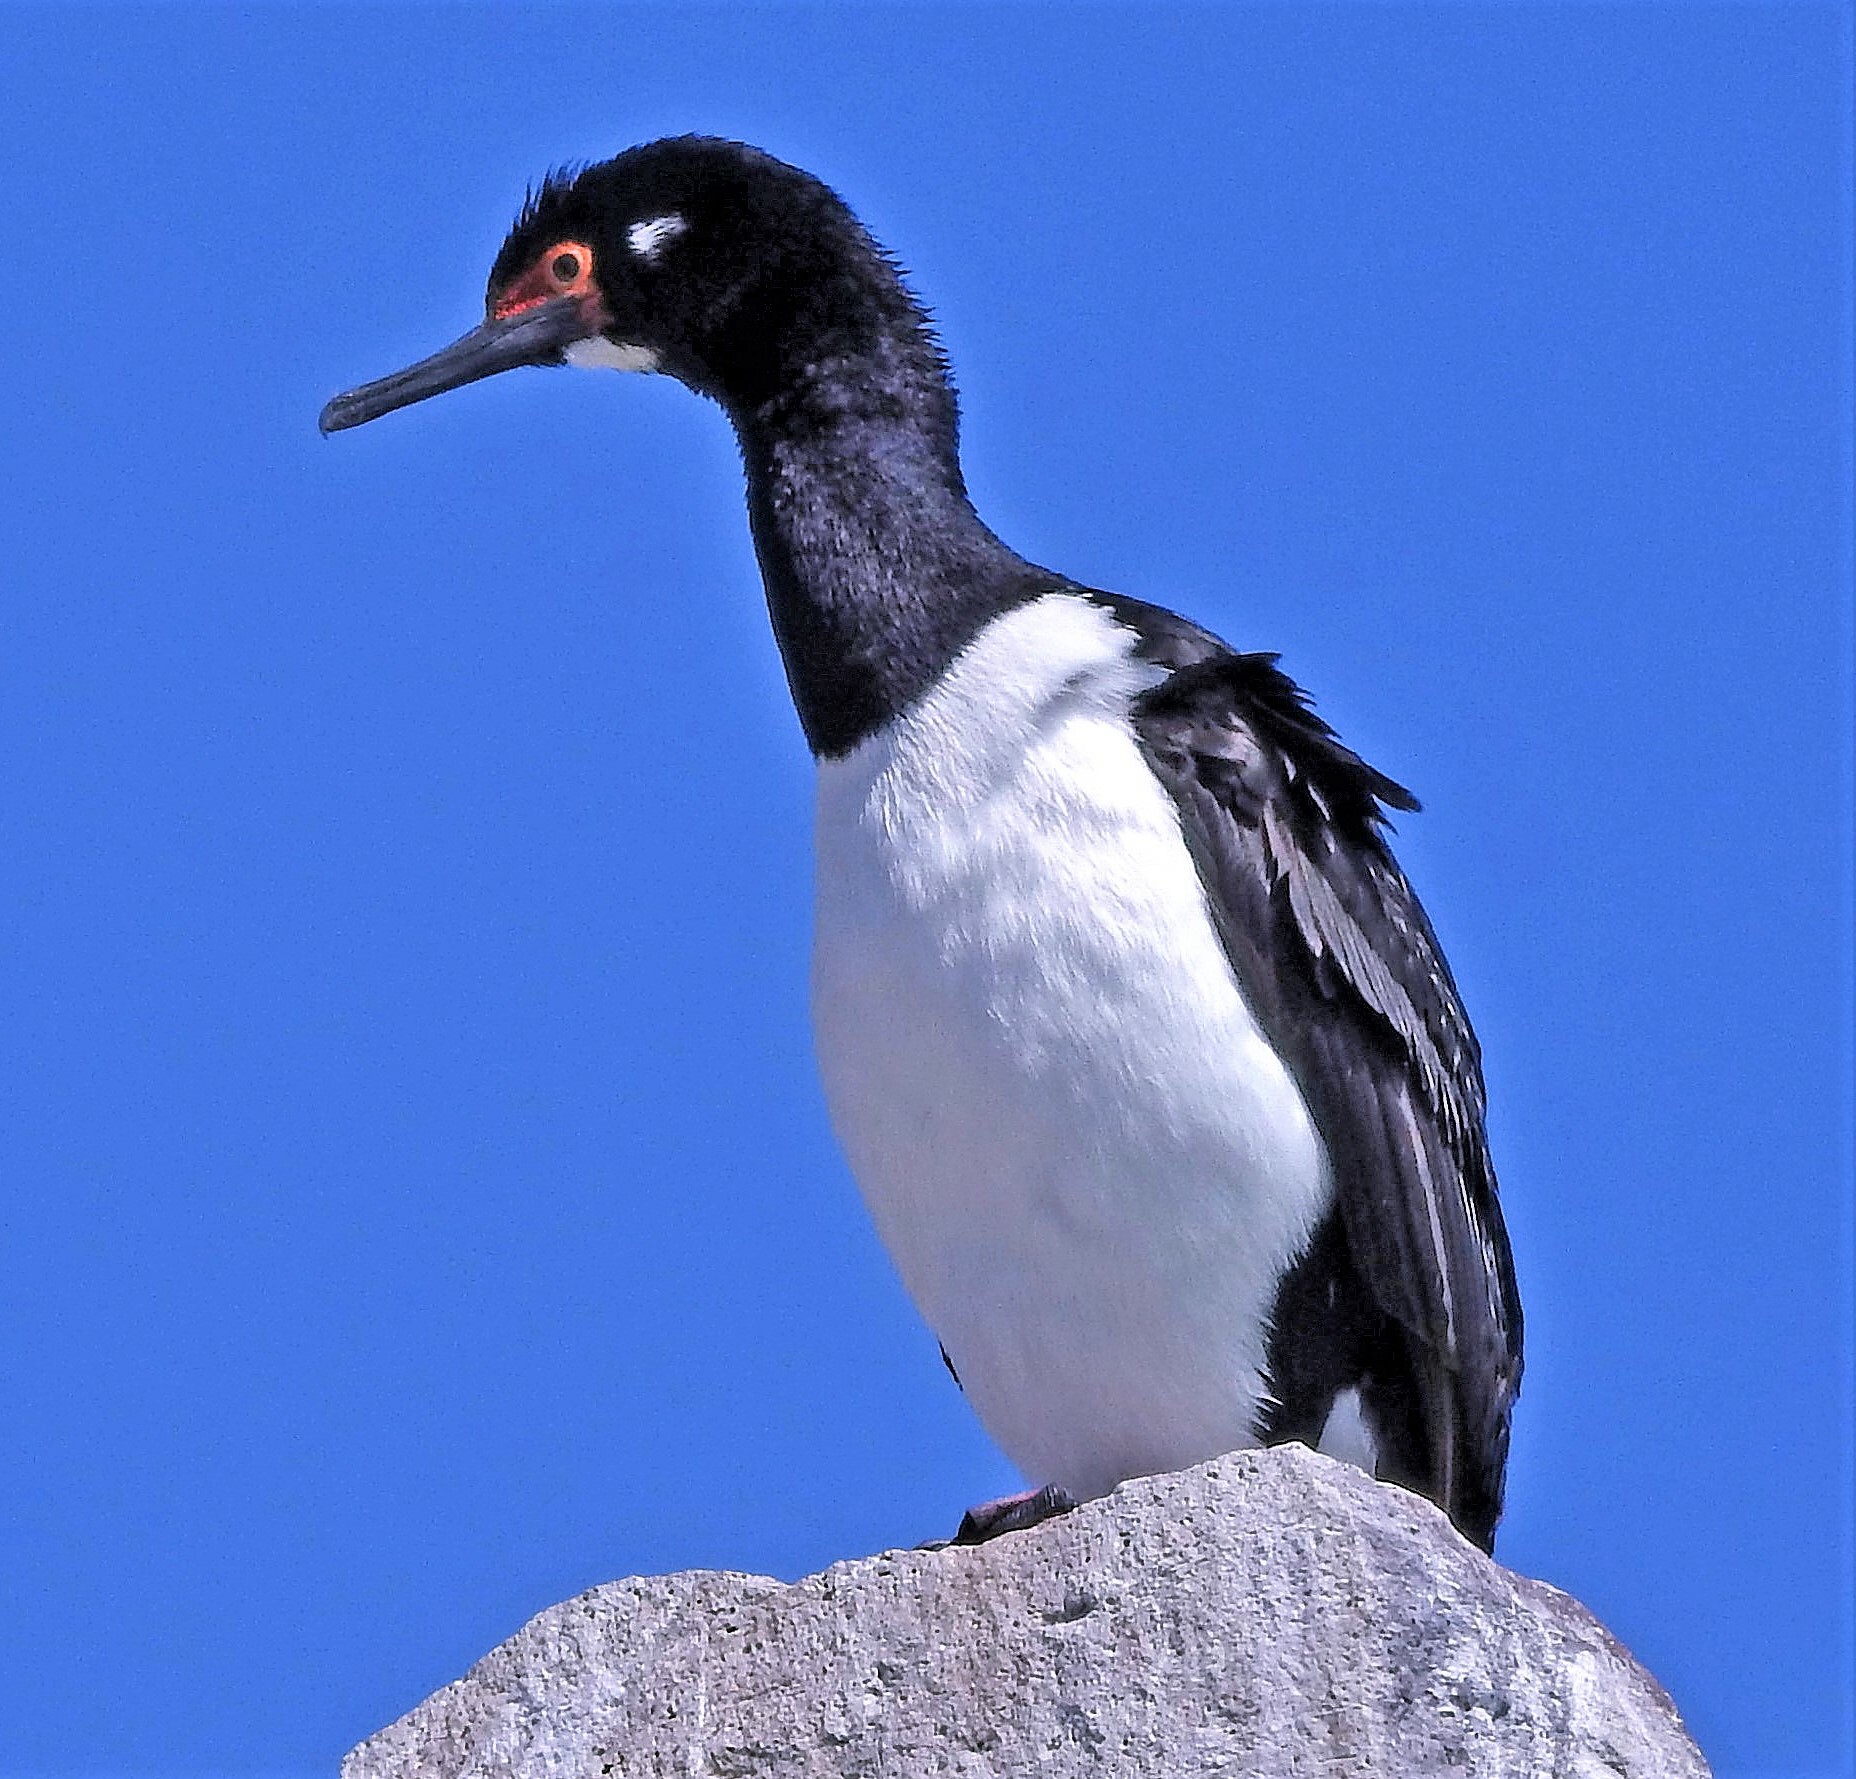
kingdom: Animalia
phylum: Chordata
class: Aves
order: Suliformes
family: Phalacrocoracidae
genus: Phalacrocorax
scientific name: Phalacrocorax magellanicus
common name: Rock shag
